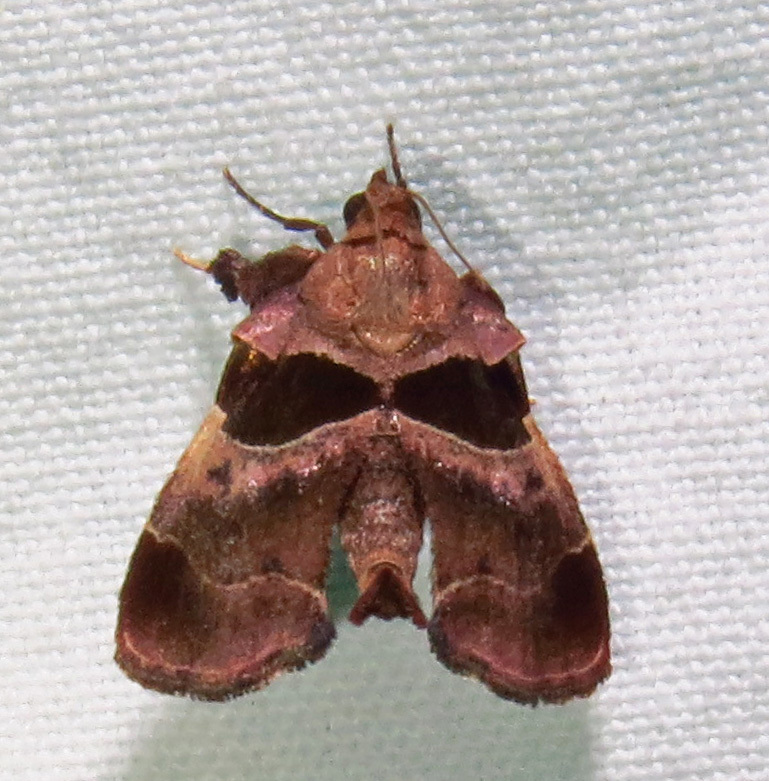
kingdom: Animalia
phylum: Arthropoda
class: Insecta
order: Lepidoptera
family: Pyralidae
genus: Tosale
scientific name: Tosale oviplagalis
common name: Dimorphic tosale moth
